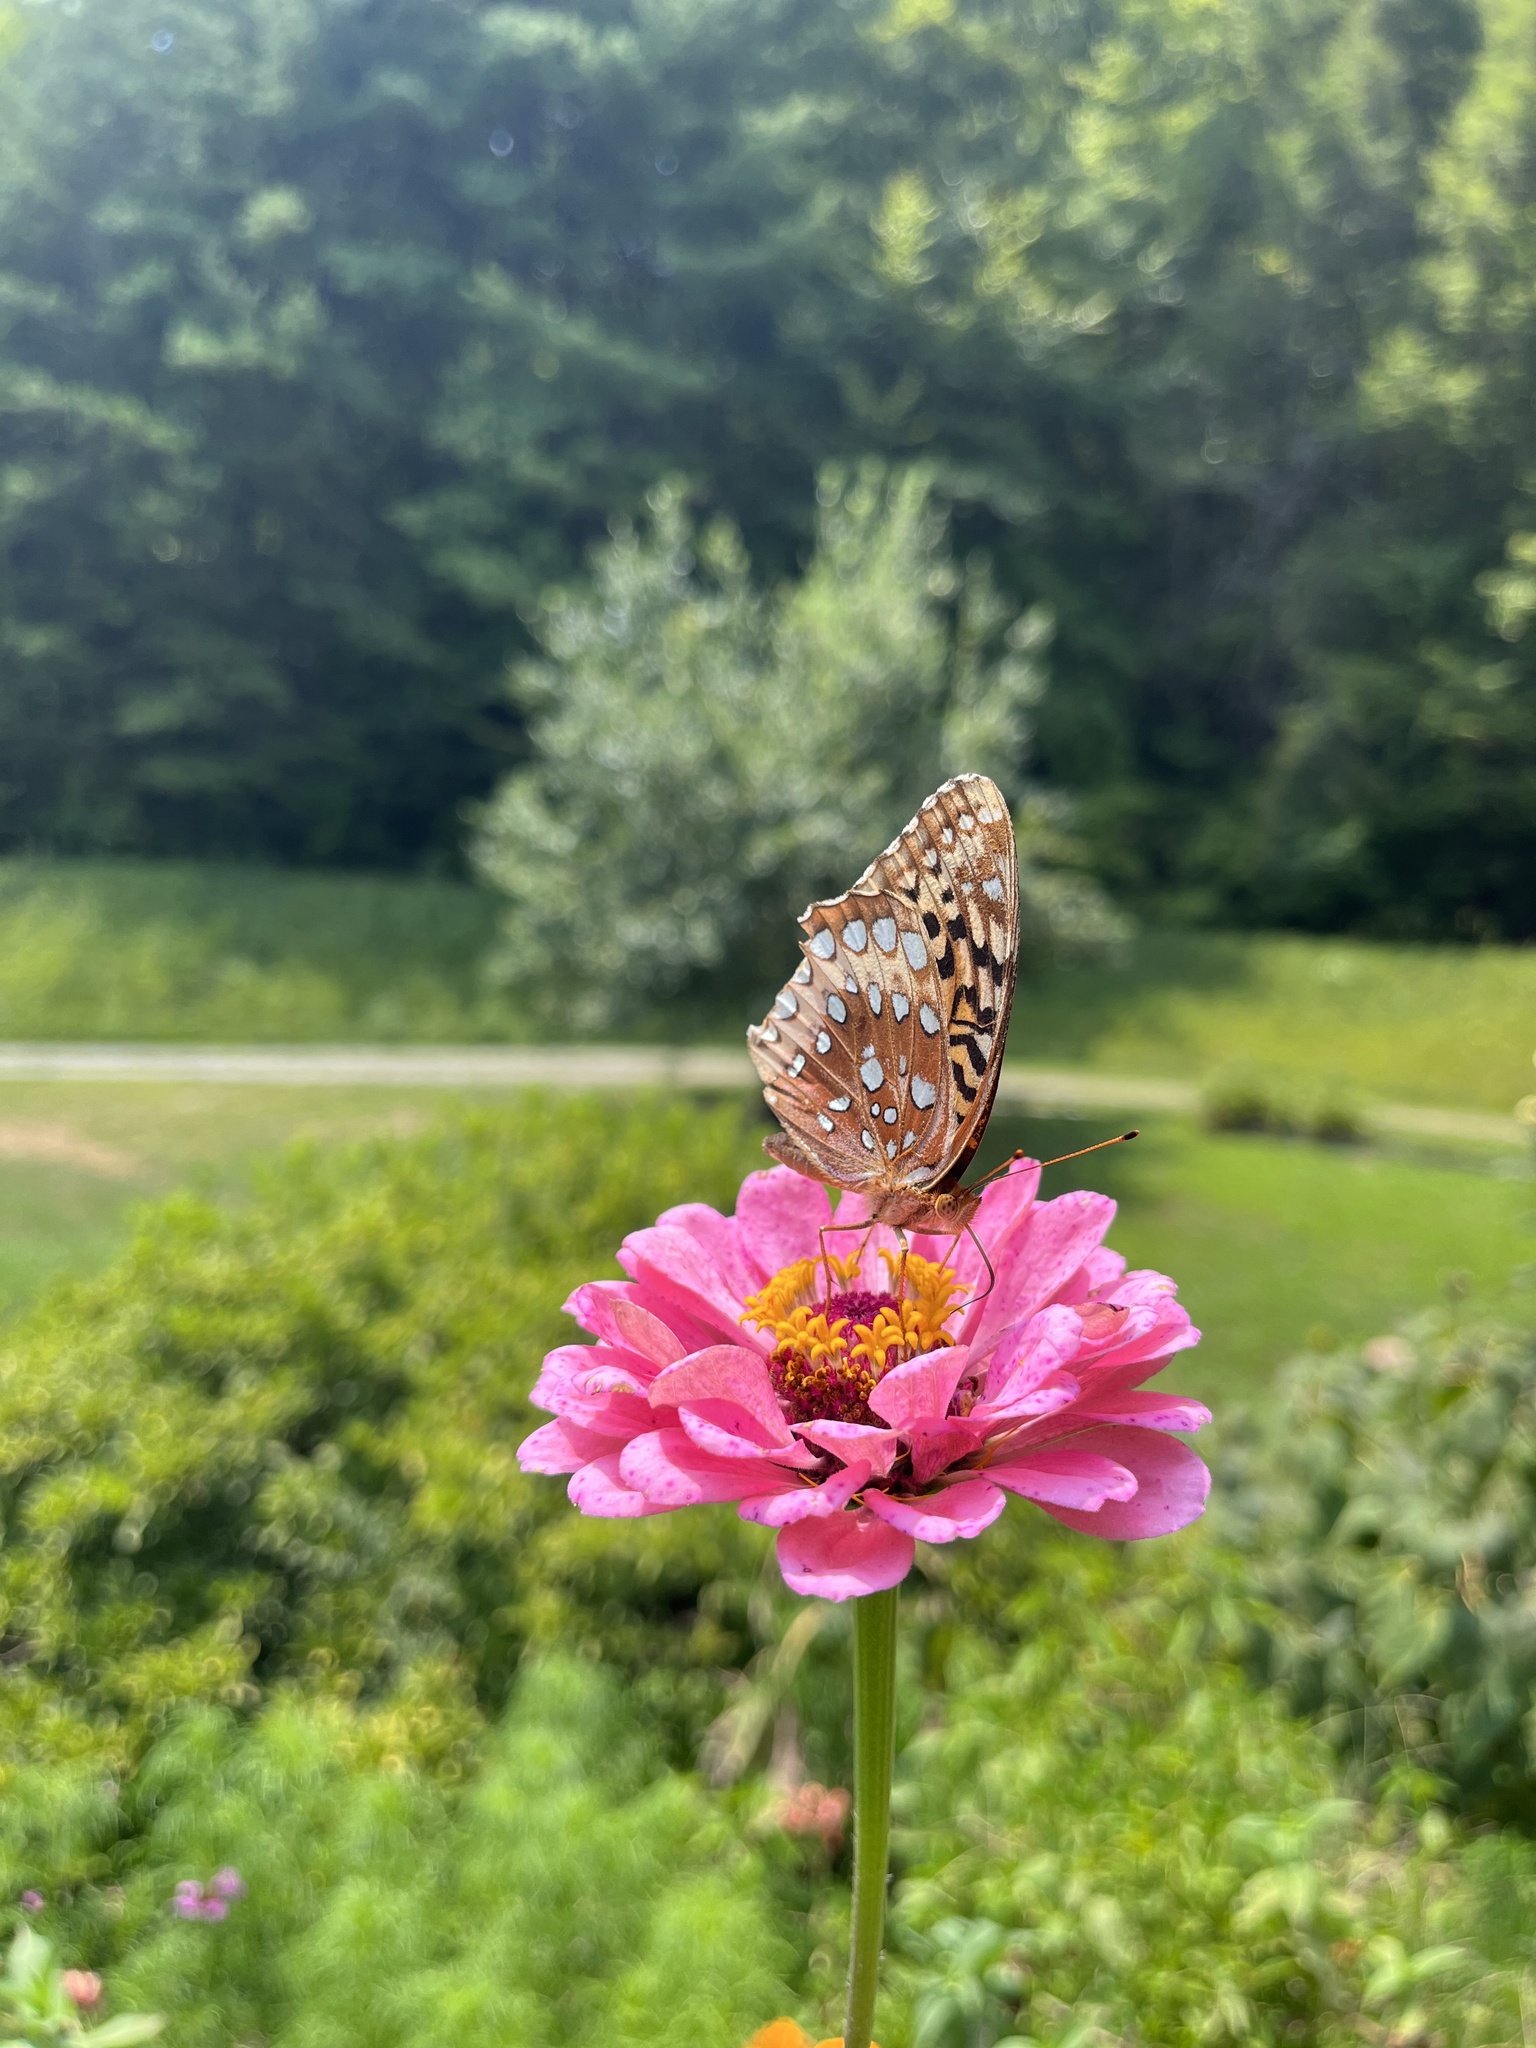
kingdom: Animalia
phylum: Arthropoda
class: Insecta
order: Lepidoptera
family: Nymphalidae
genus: Speyeria
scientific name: Speyeria cybele
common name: Great spangled fritillary
